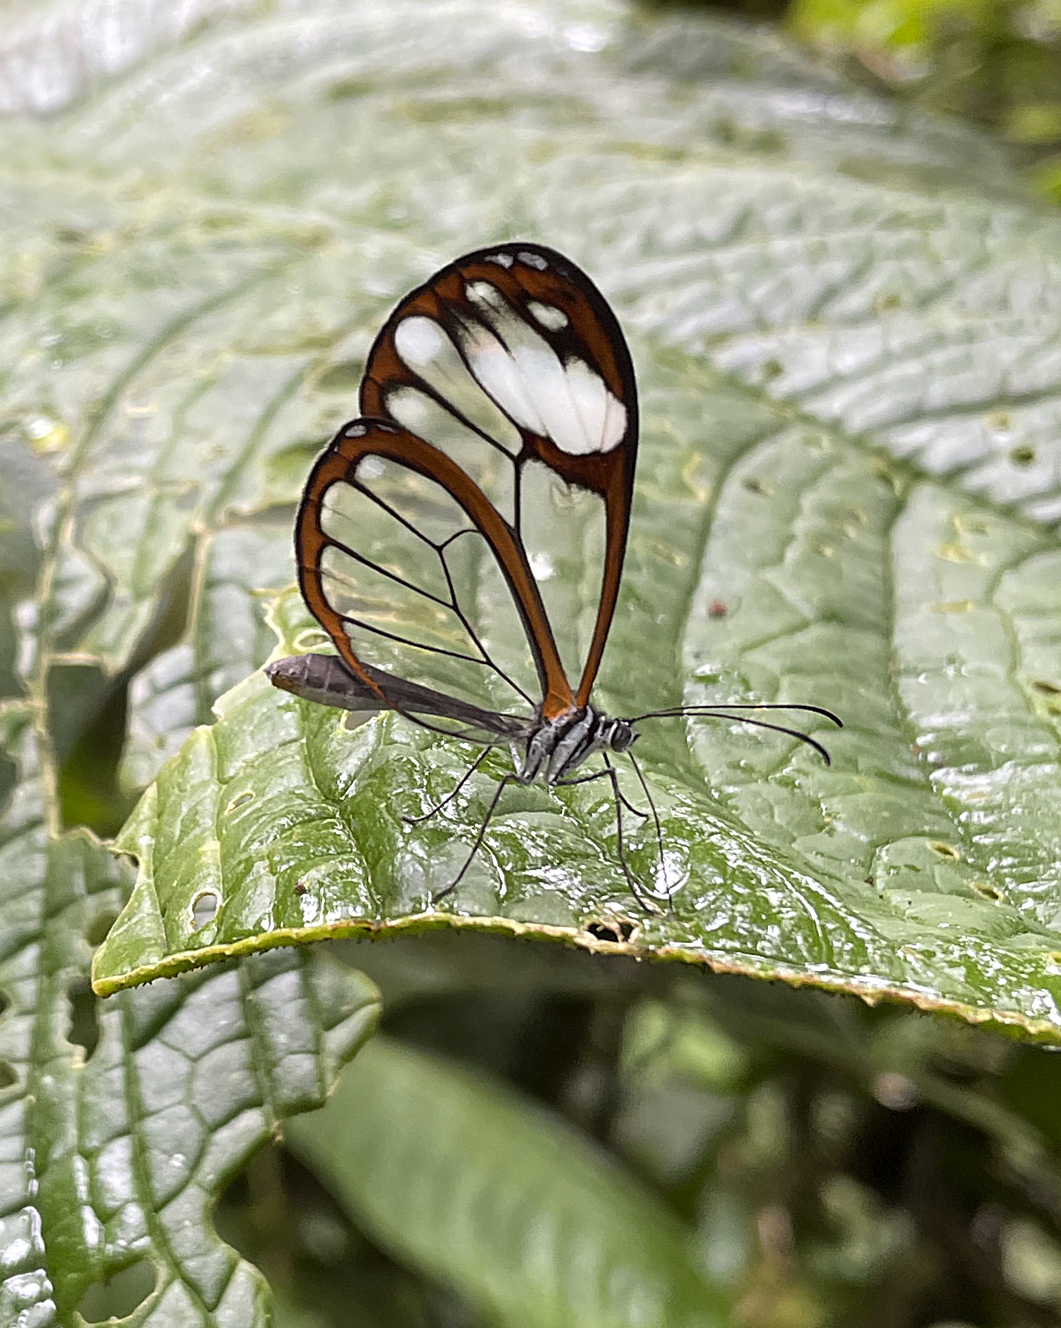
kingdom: Animalia
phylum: Arthropoda
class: Insecta
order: Lepidoptera
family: Nymphalidae
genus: Greta
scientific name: Greta andromica
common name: Andromica clearwing
